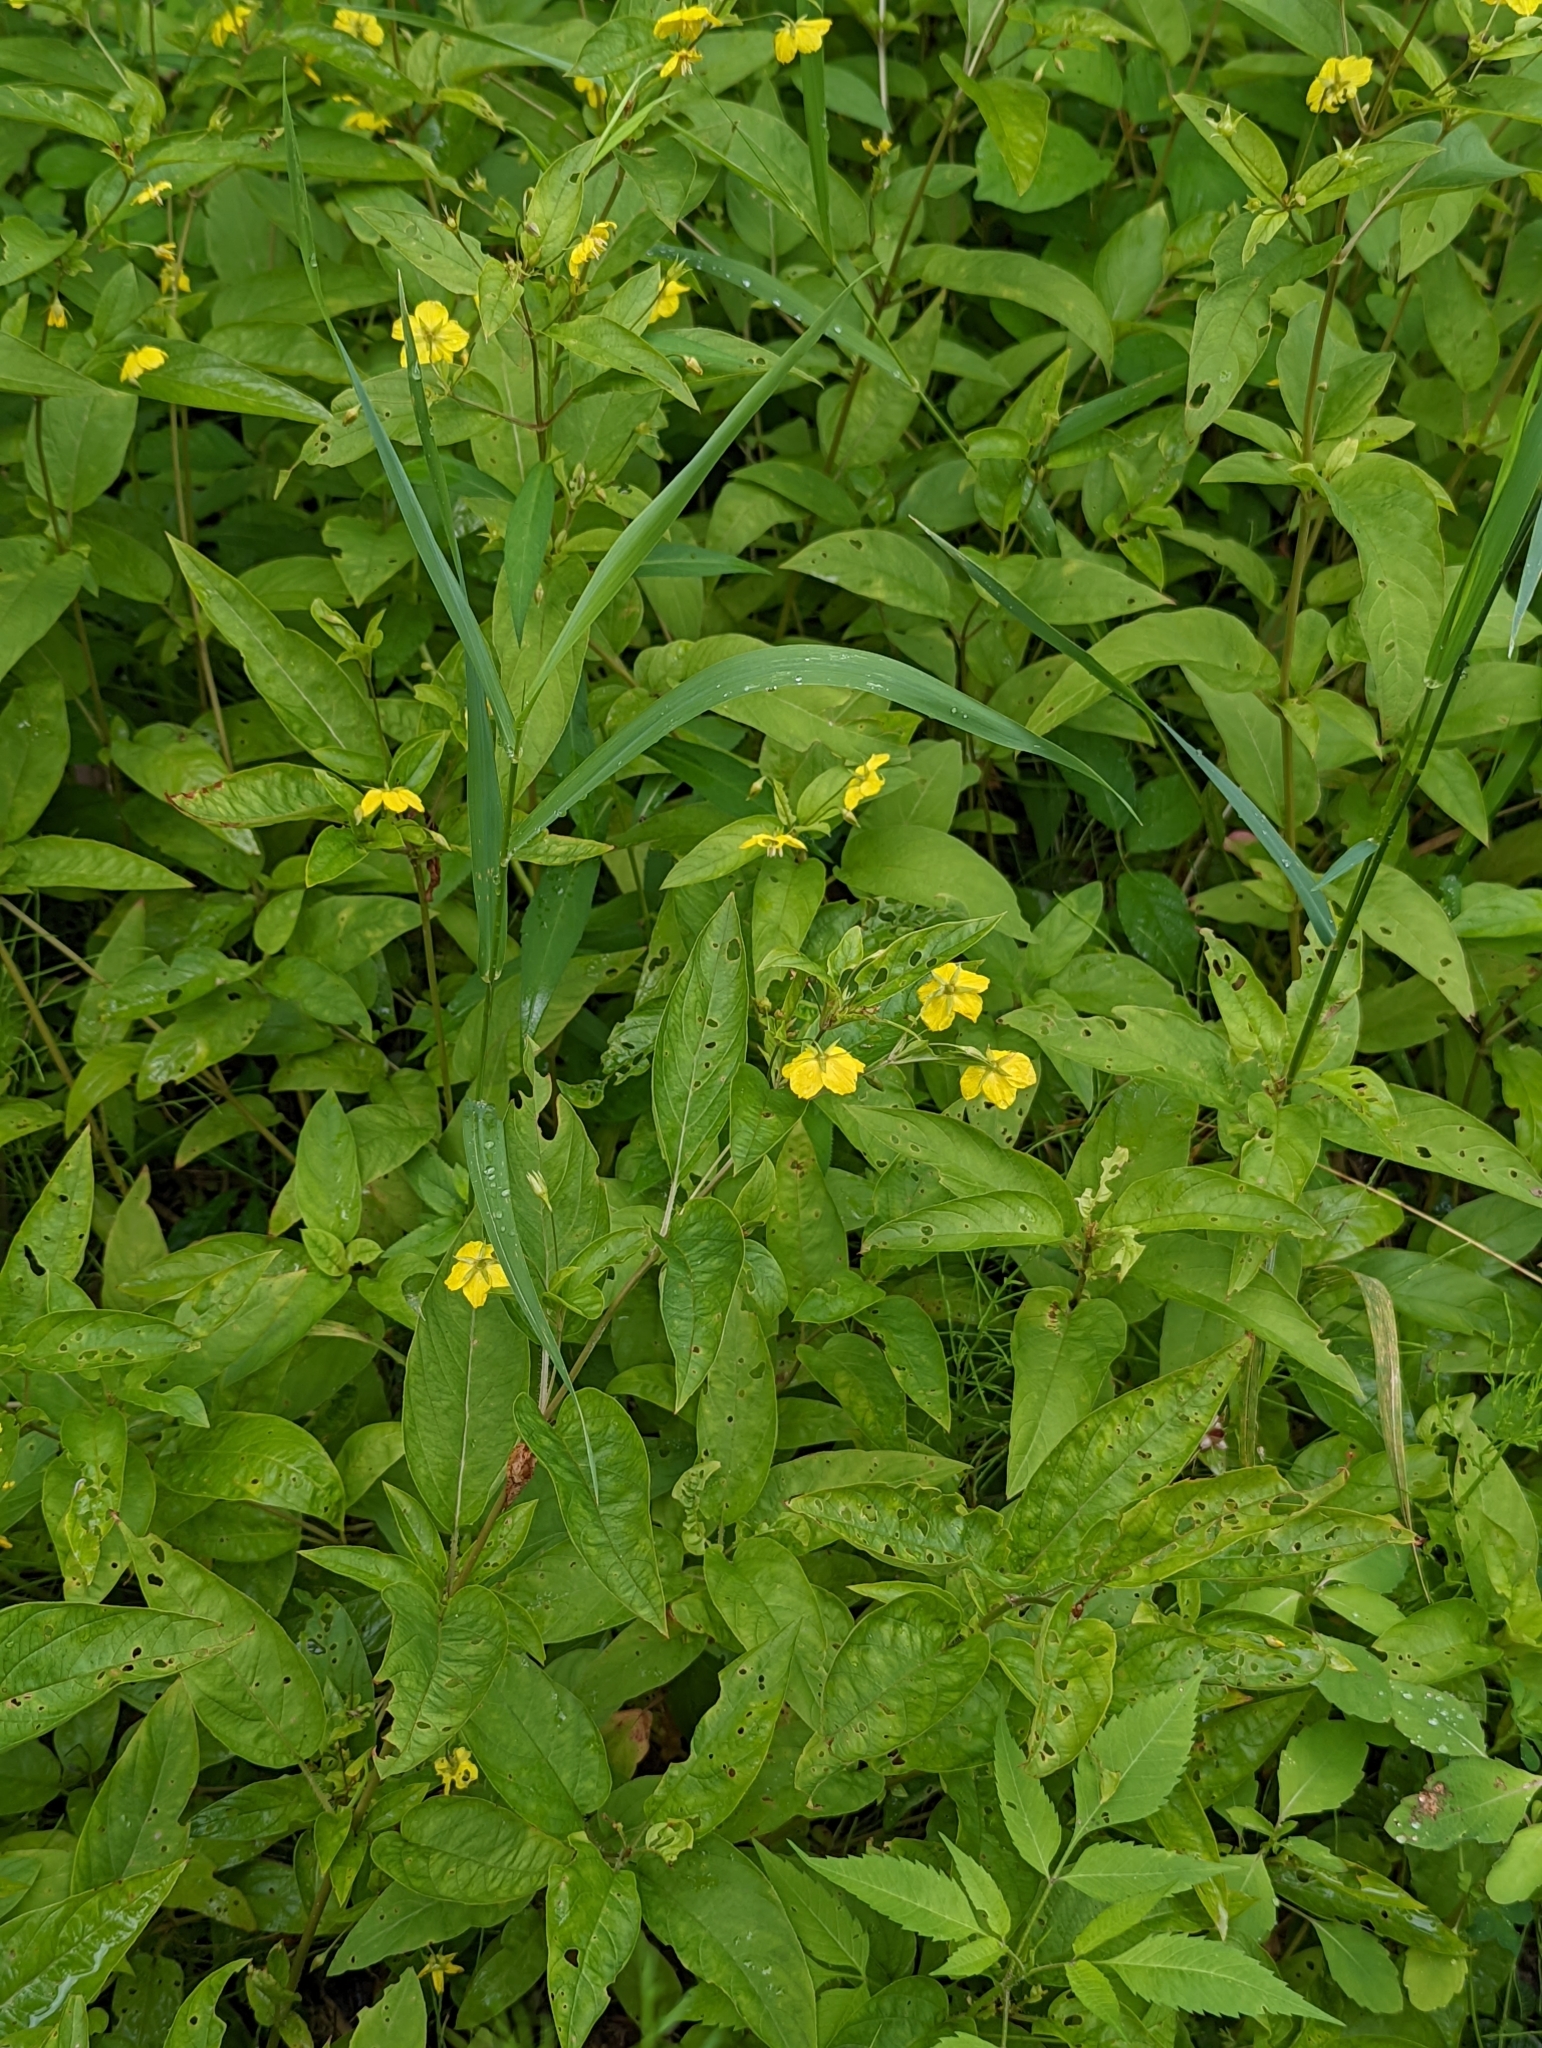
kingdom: Plantae
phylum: Tracheophyta
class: Magnoliopsida
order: Ericales
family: Primulaceae
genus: Lysimachia
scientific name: Lysimachia ciliata
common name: Fringed loosestrife
